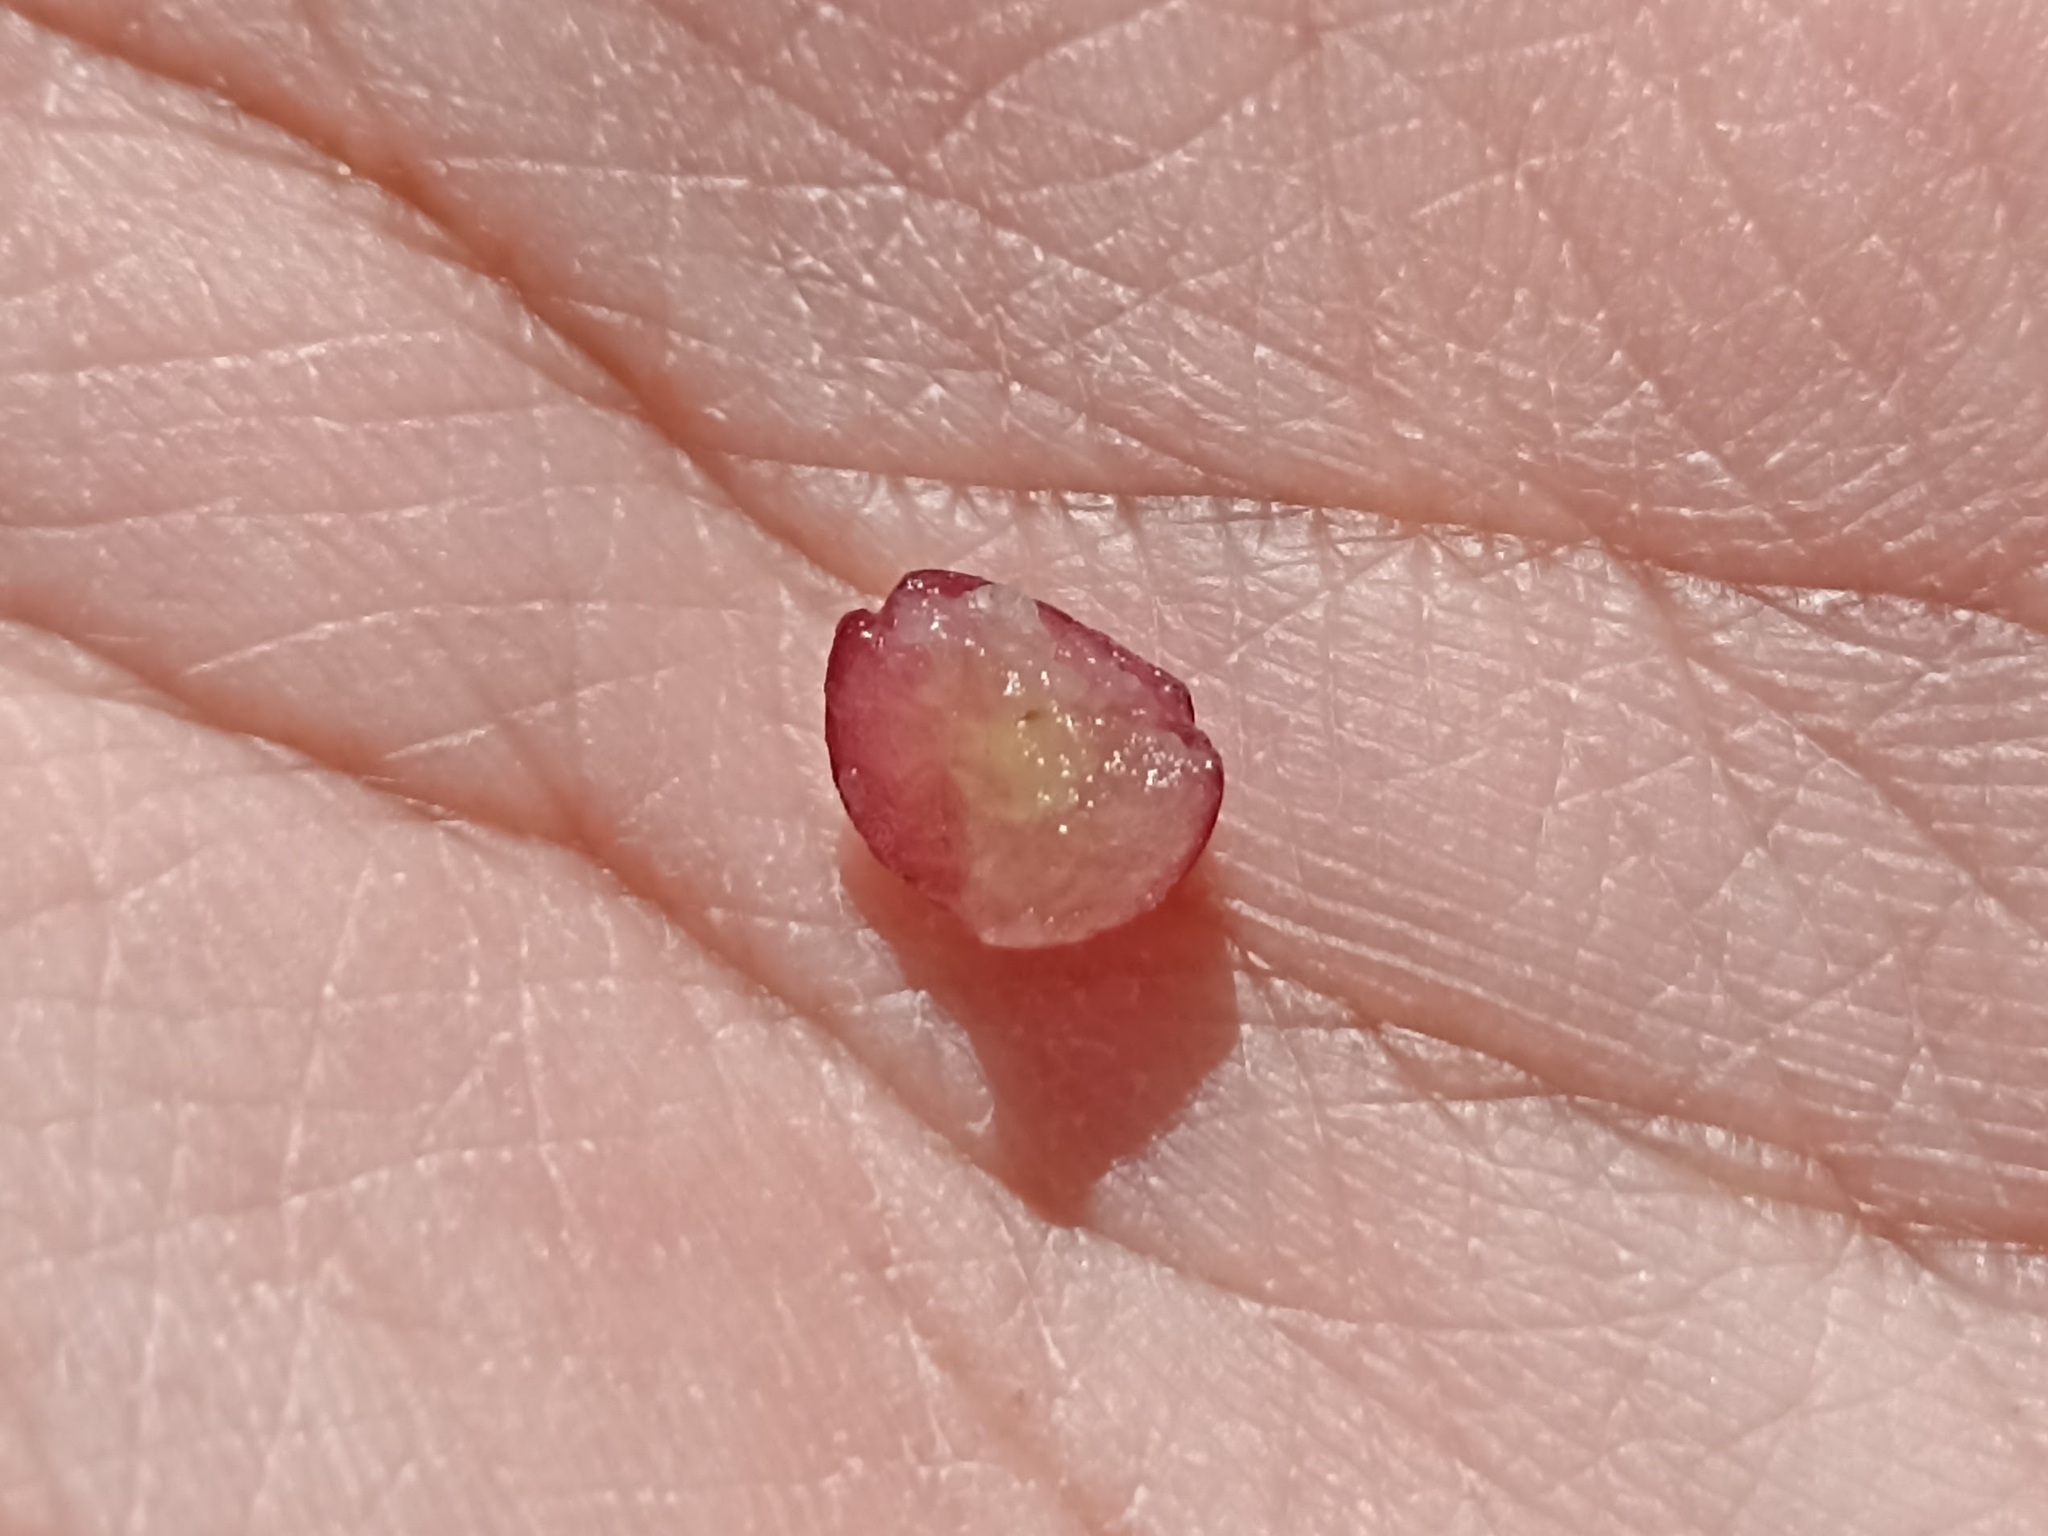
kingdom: Animalia
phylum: Arthropoda
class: Insecta
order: Hymenoptera
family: Cynipidae
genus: Cynips
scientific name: Cynips divisa
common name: Red currant gall
